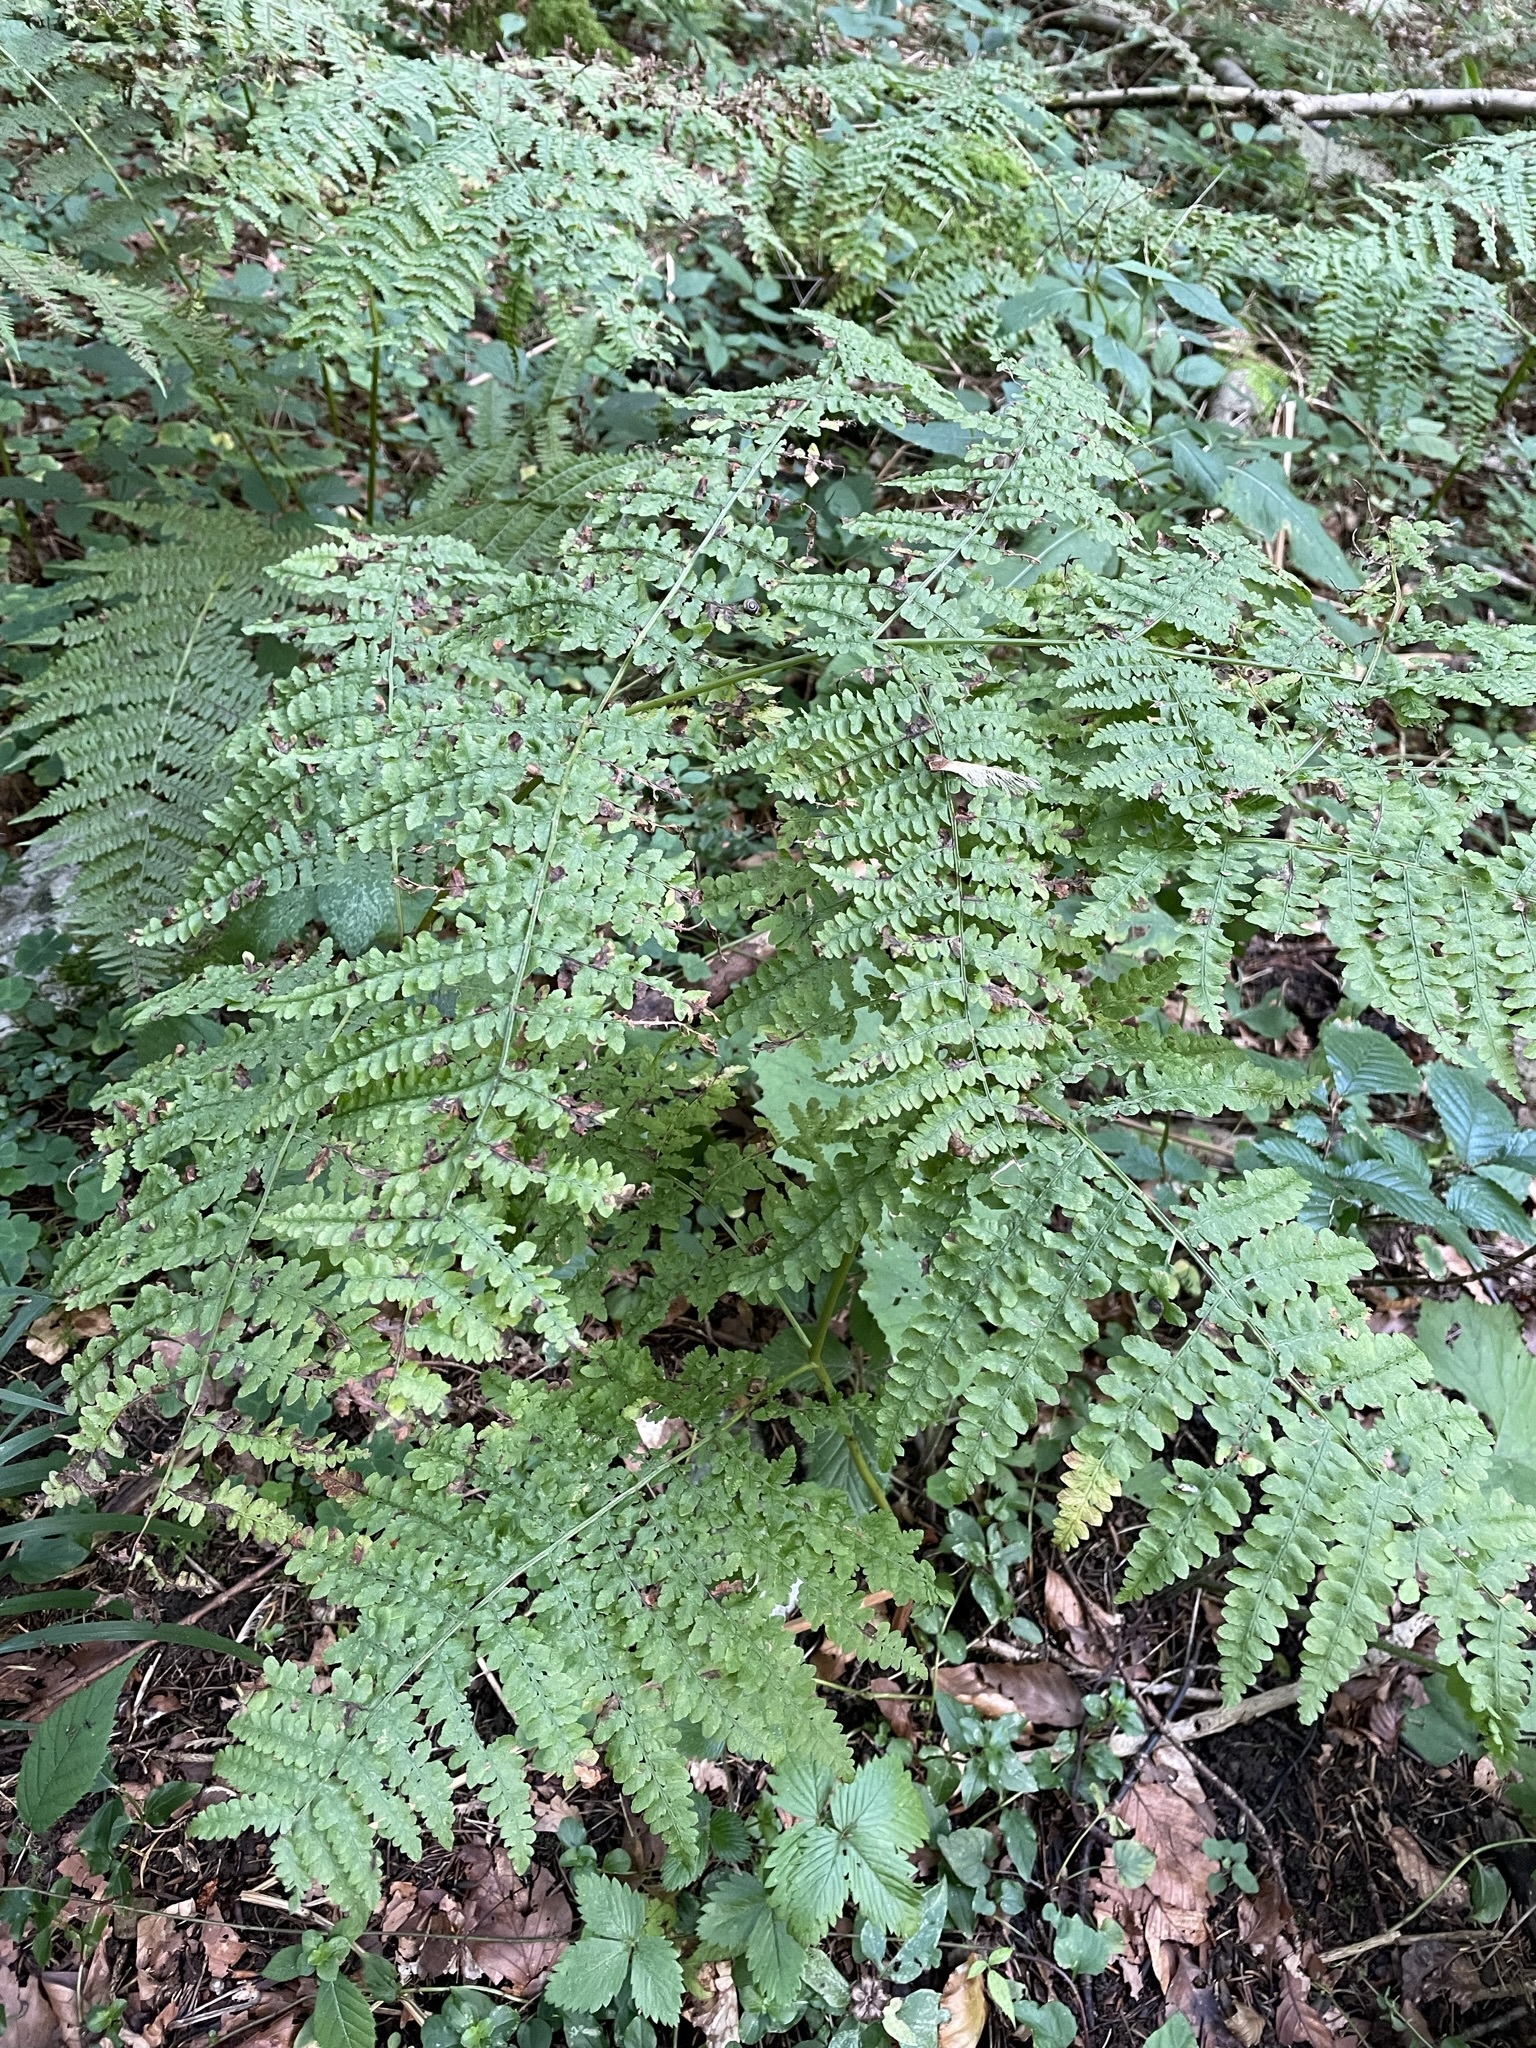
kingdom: Plantae
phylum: Tracheophyta
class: Polypodiopsida
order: Polypodiales
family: Dennstaedtiaceae
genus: Pteridium
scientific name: Pteridium aquilinum
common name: Bracken
